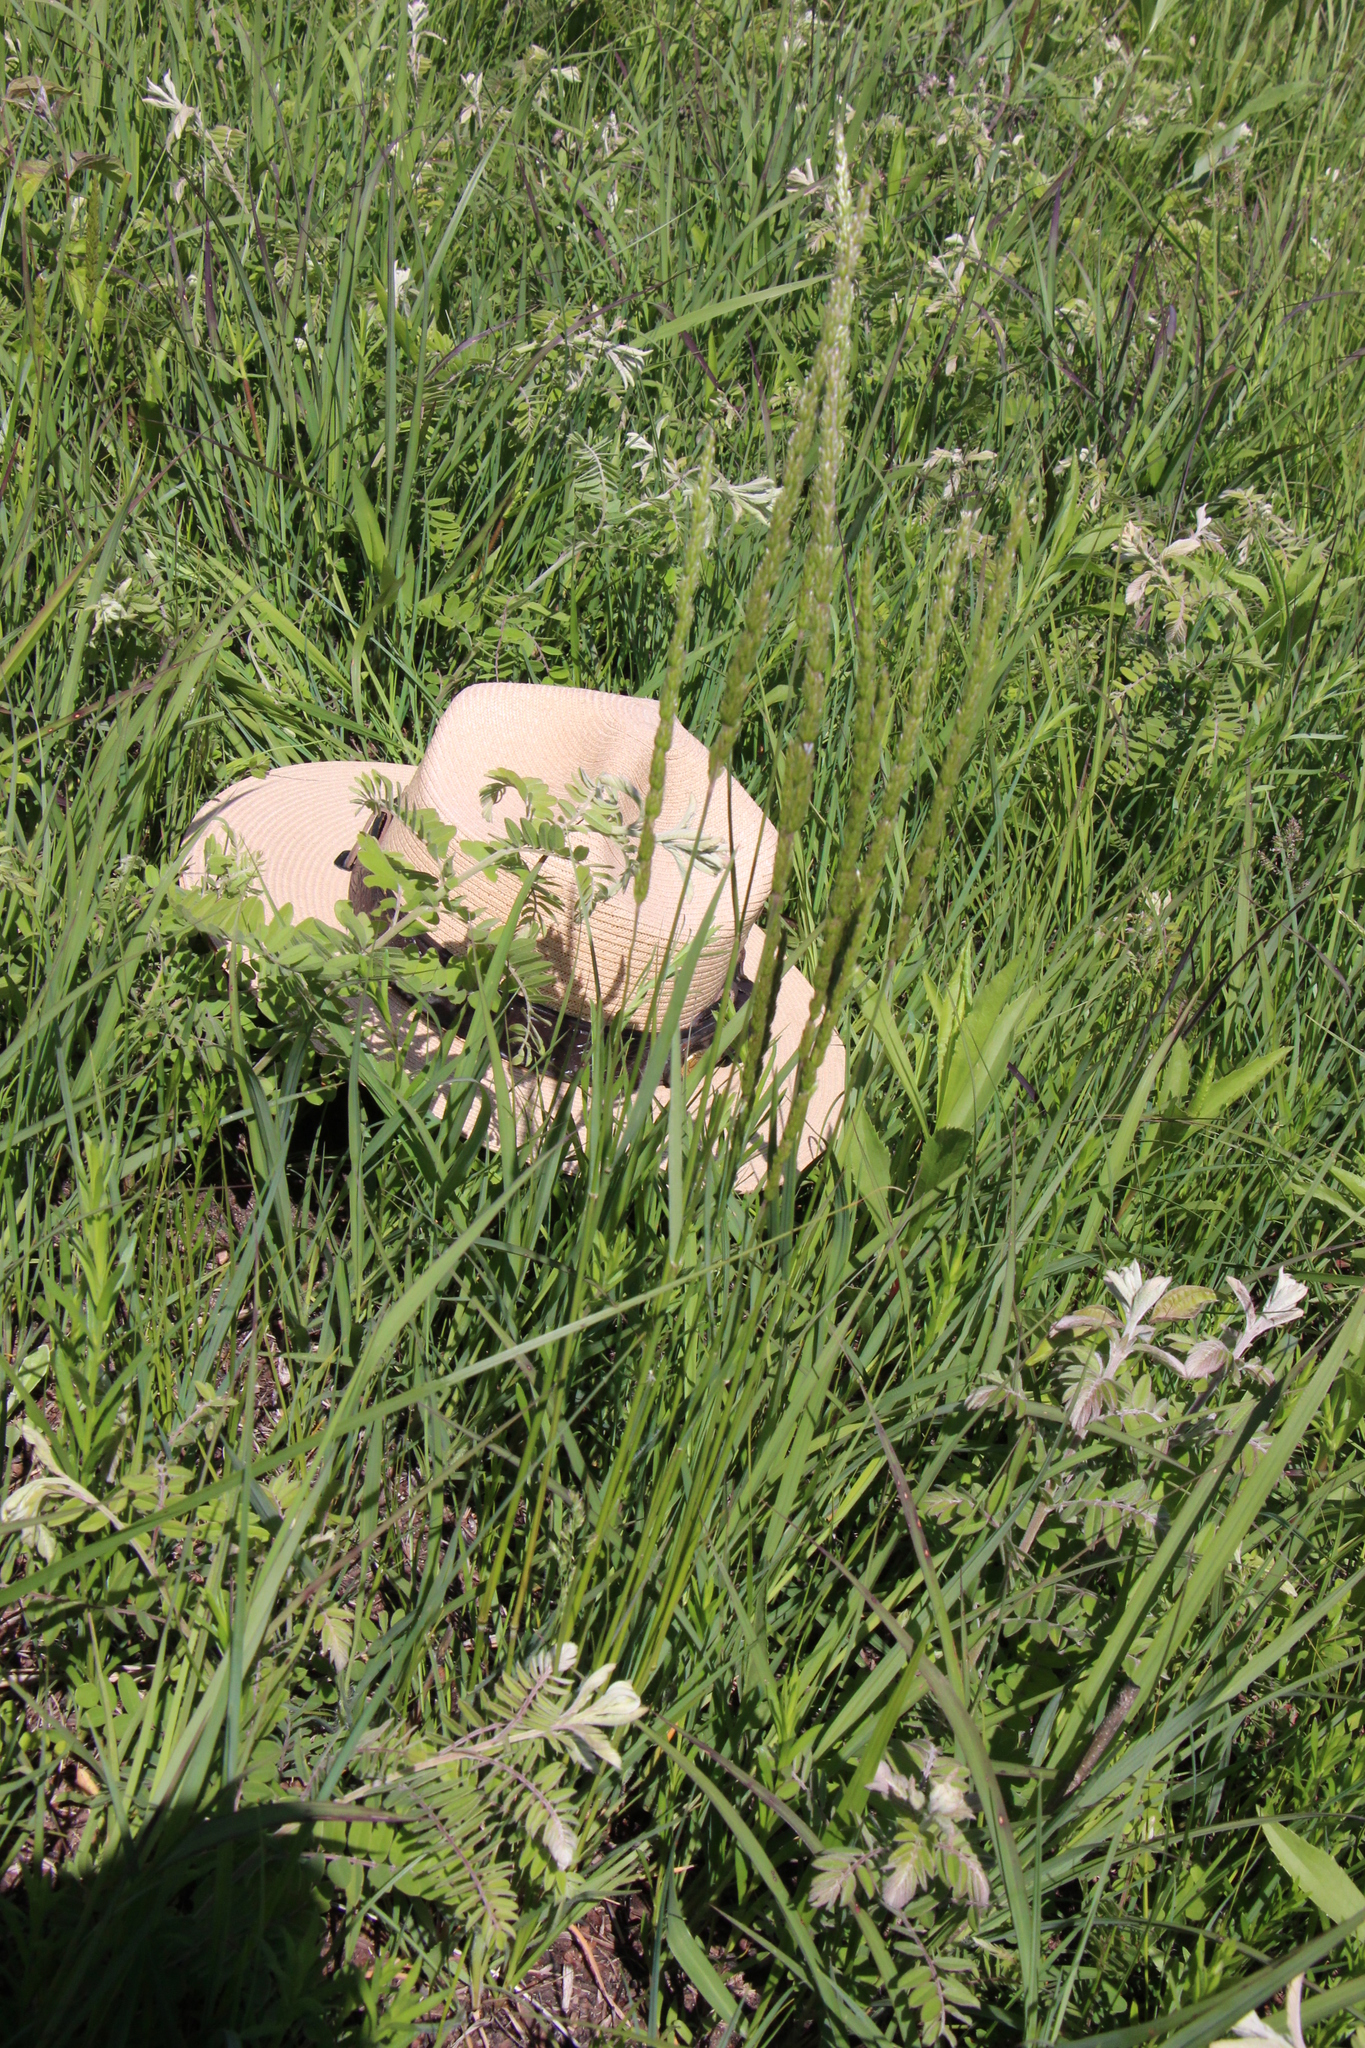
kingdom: Plantae
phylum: Tracheophyta
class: Liliopsida
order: Poales
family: Poaceae
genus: Koeleria
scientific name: Koeleria macrantha
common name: Crested hair-grass
